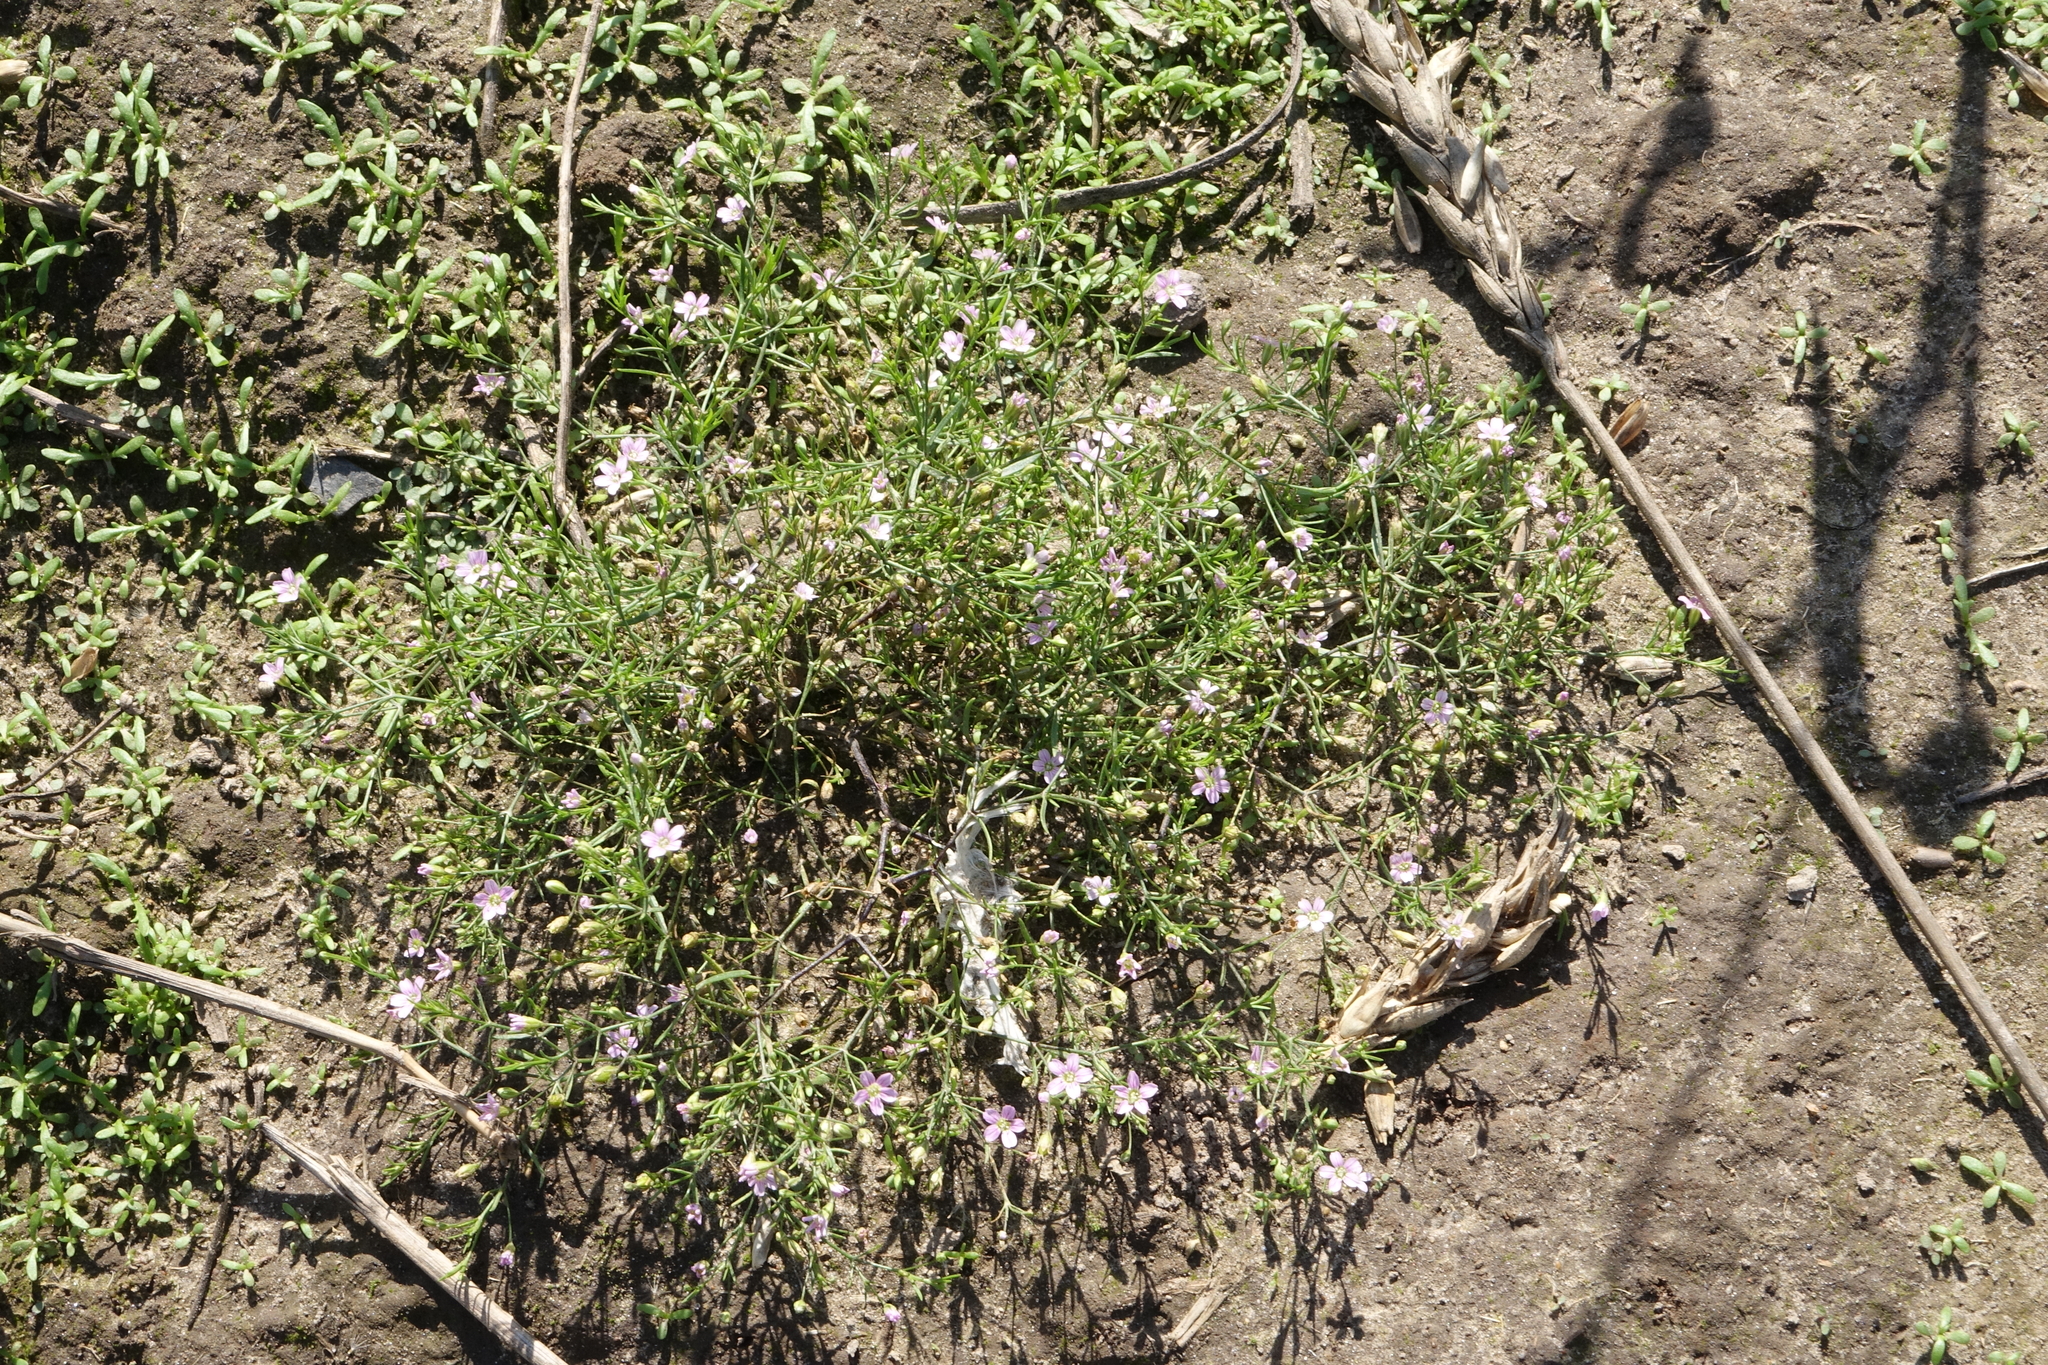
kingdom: Plantae
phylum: Tracheophyta
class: Magnoliopsida
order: Caryophyllales
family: Caryophyllaceae
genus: Psammophiliella
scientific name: Psammophiliella muralis
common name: Cushion baby's-breath
